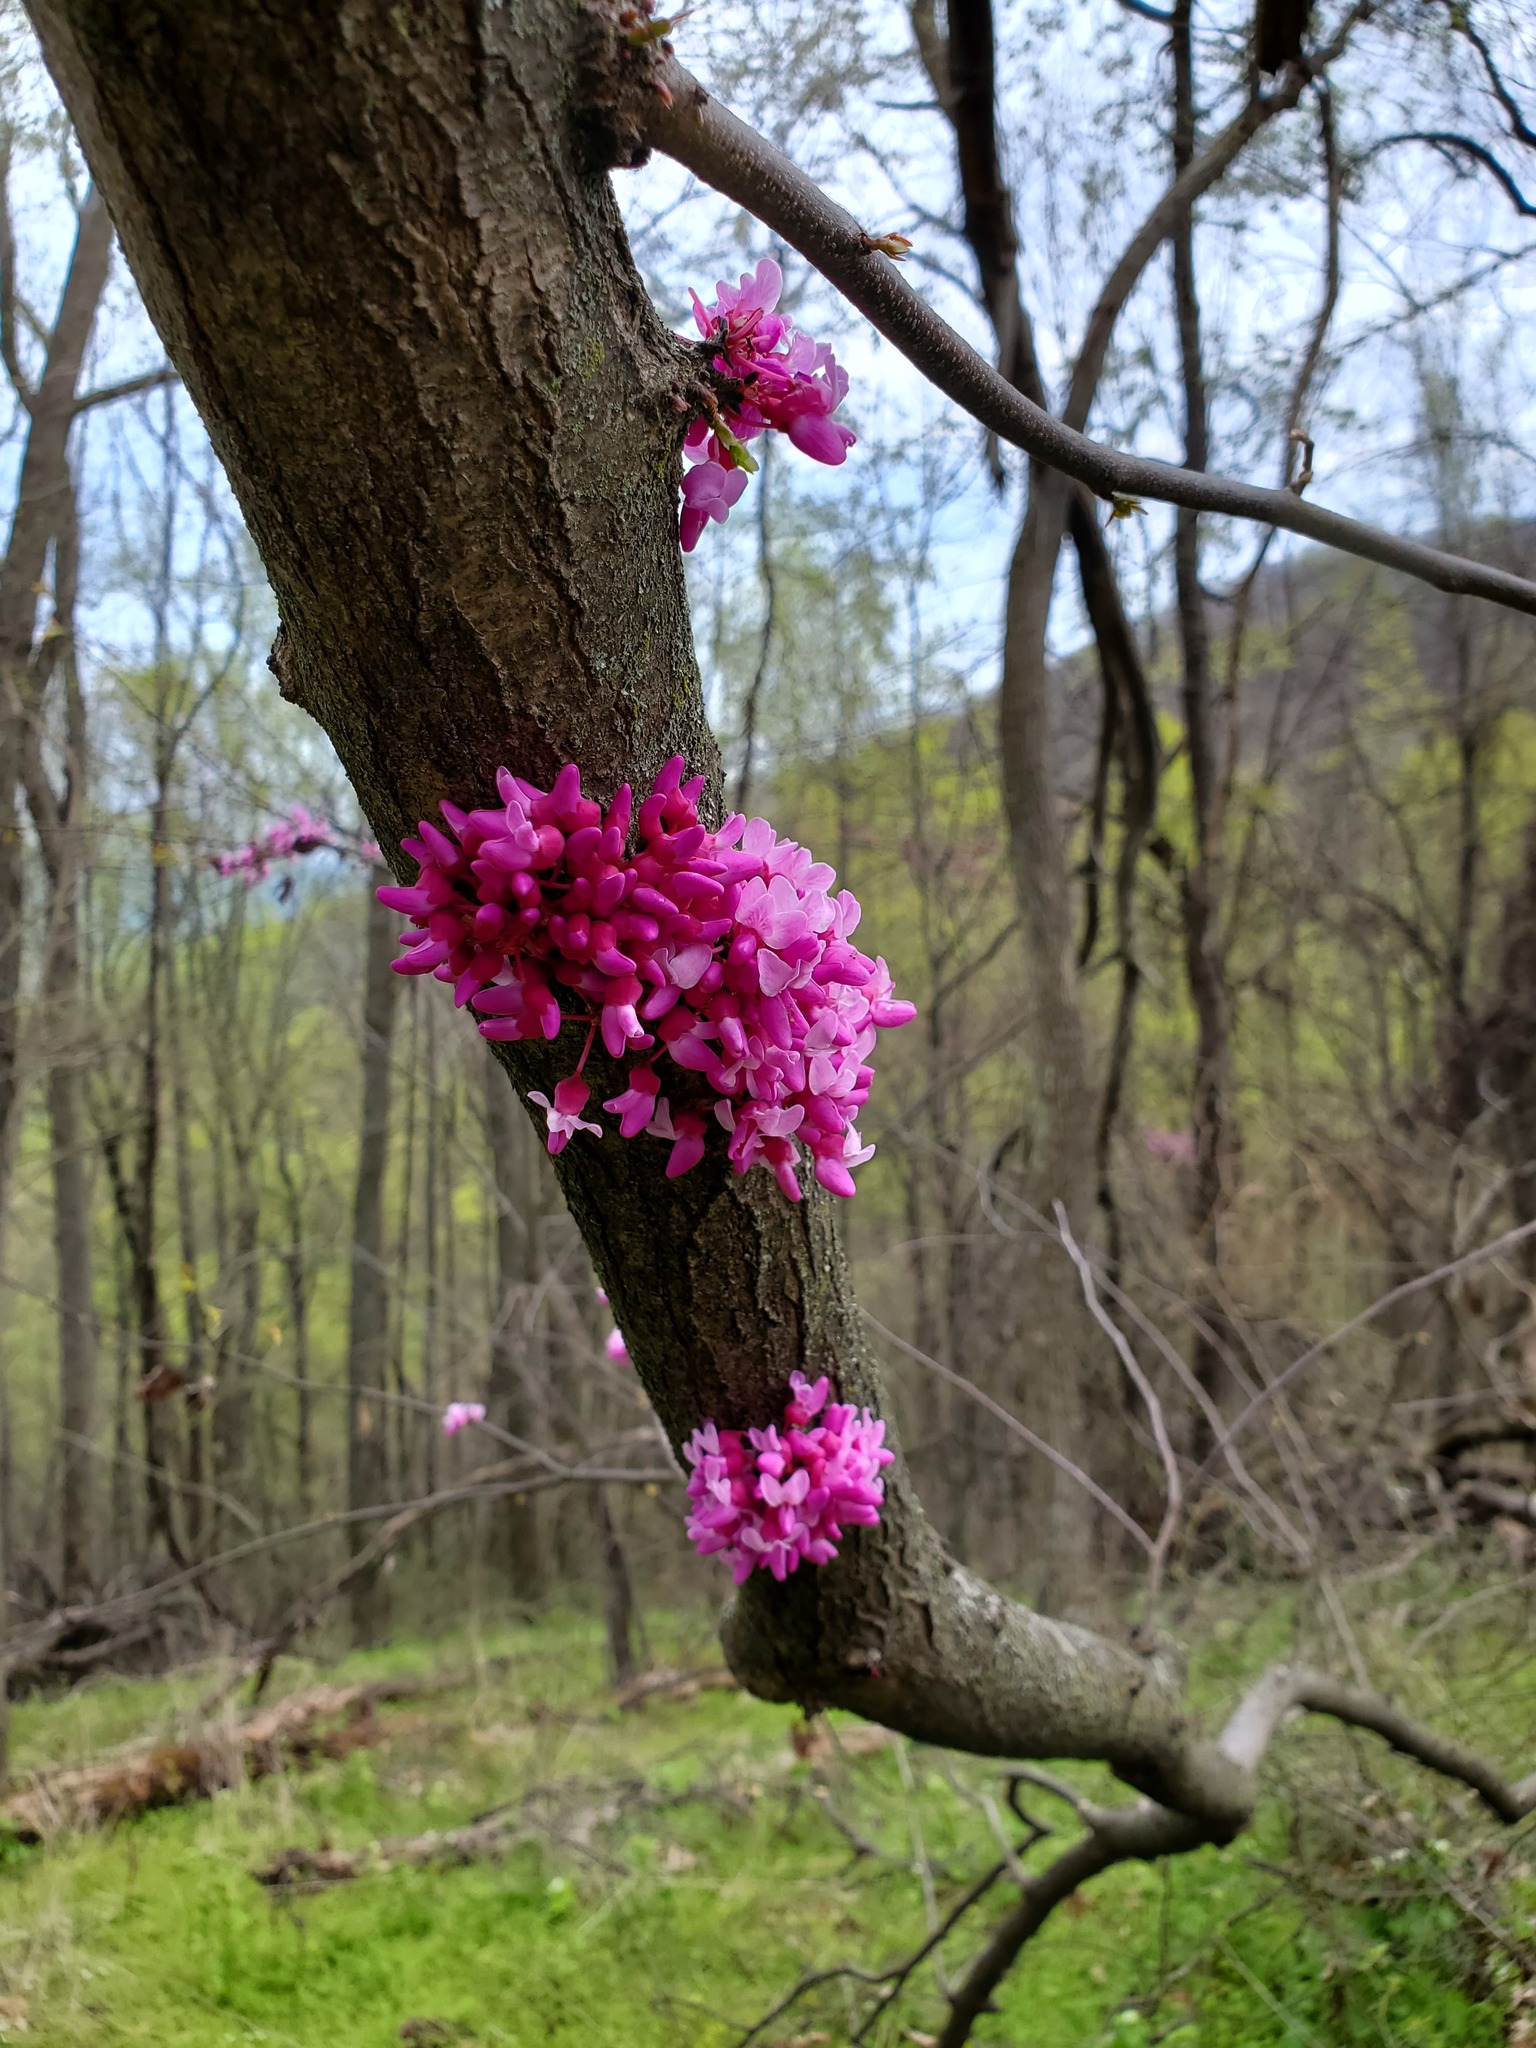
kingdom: Plantae
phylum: Tracheophyta
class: Magnoliopsida
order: Fabales
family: Fabaceae
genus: Cercis
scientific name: Cercis canadensis
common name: Eastern redbud
